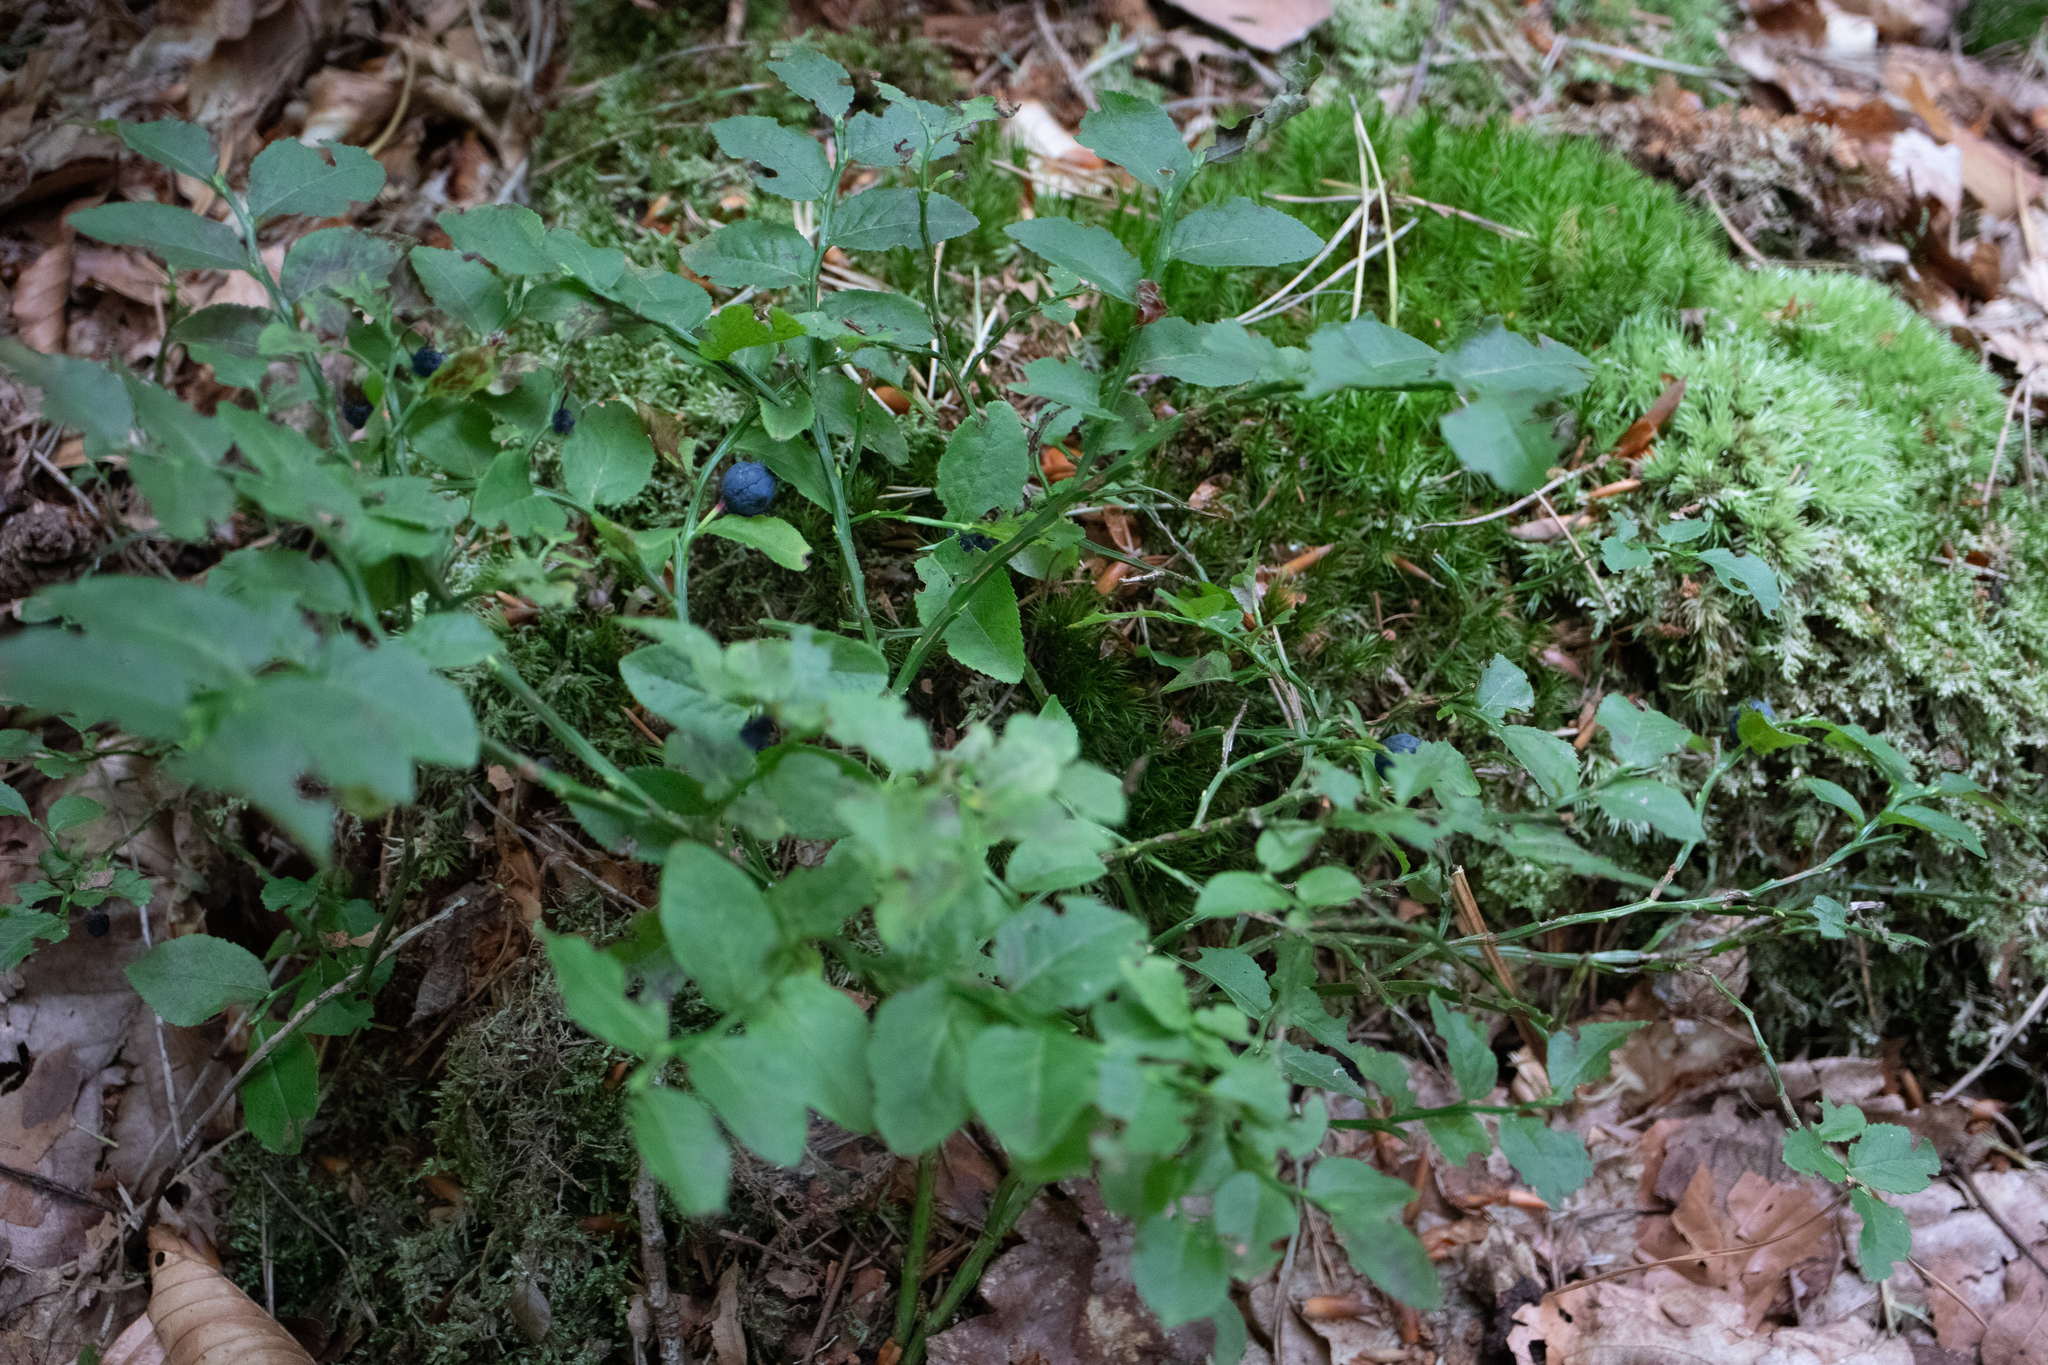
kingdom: Plantae
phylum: Tracheophyta
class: Magnoliopsida
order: Ericales
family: Ericaceae
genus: Vaccinium
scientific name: Vaccinium myrtillus
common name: Bilberry
